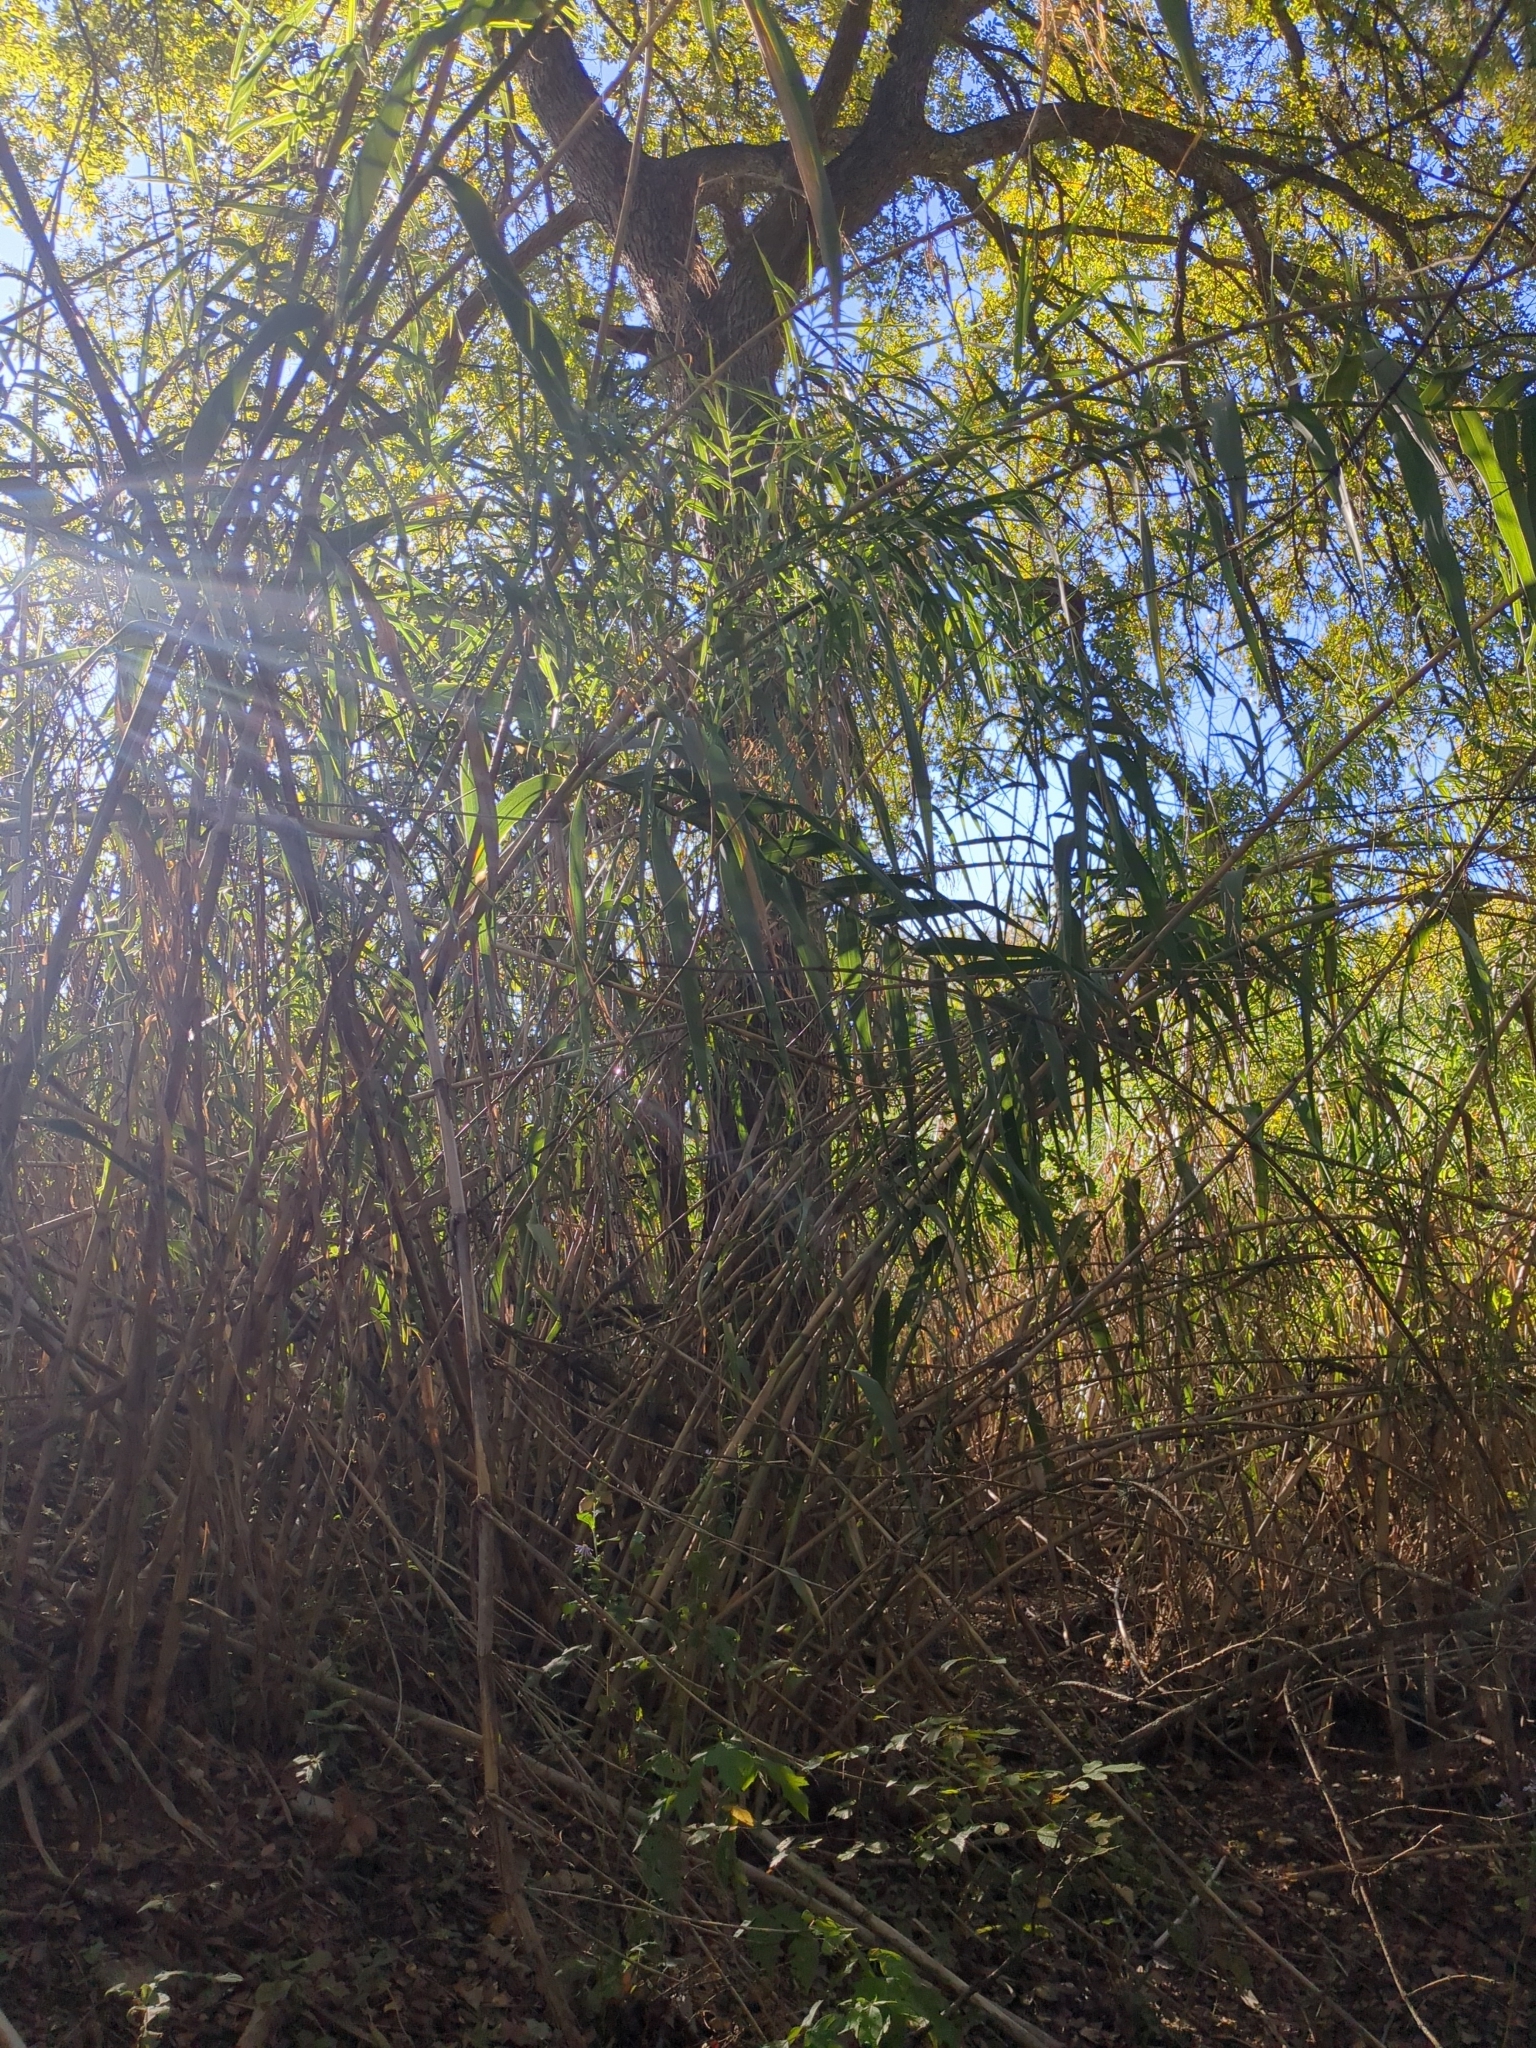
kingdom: Plantae
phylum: Tracheophyta
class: Liliopsida
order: Poales
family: Poaceae
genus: Arundo
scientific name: Arundo donax
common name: Giant reed
